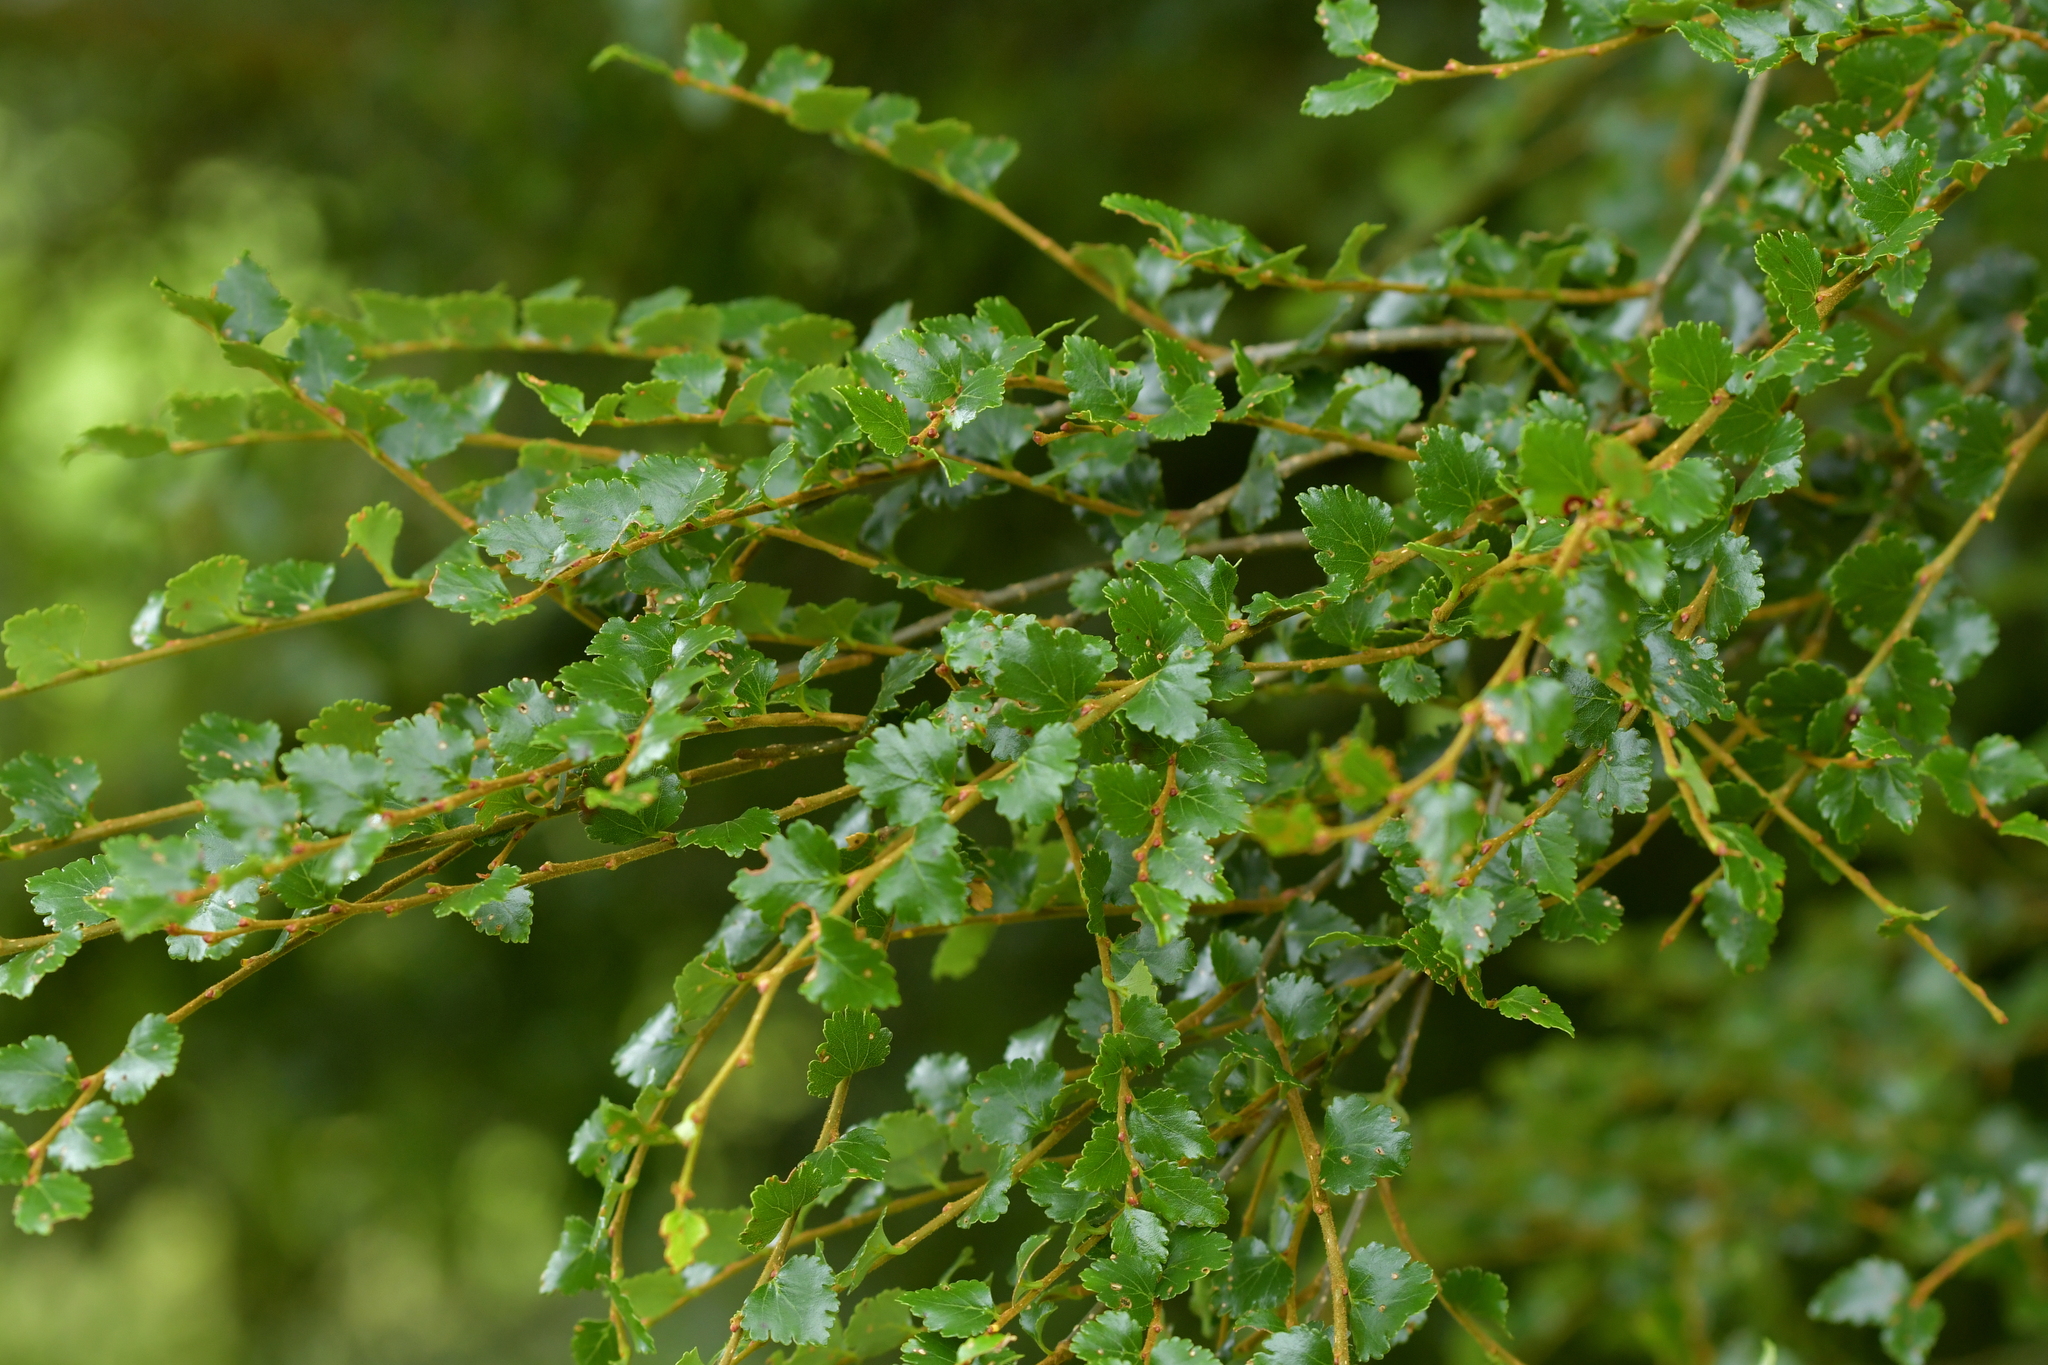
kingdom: Plantae
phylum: Tracheophyta
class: Magnoliopsida
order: Fagales
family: Nothofagaceae
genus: Nothofagus
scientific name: Nothofagus menziesii
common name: Silver beech
